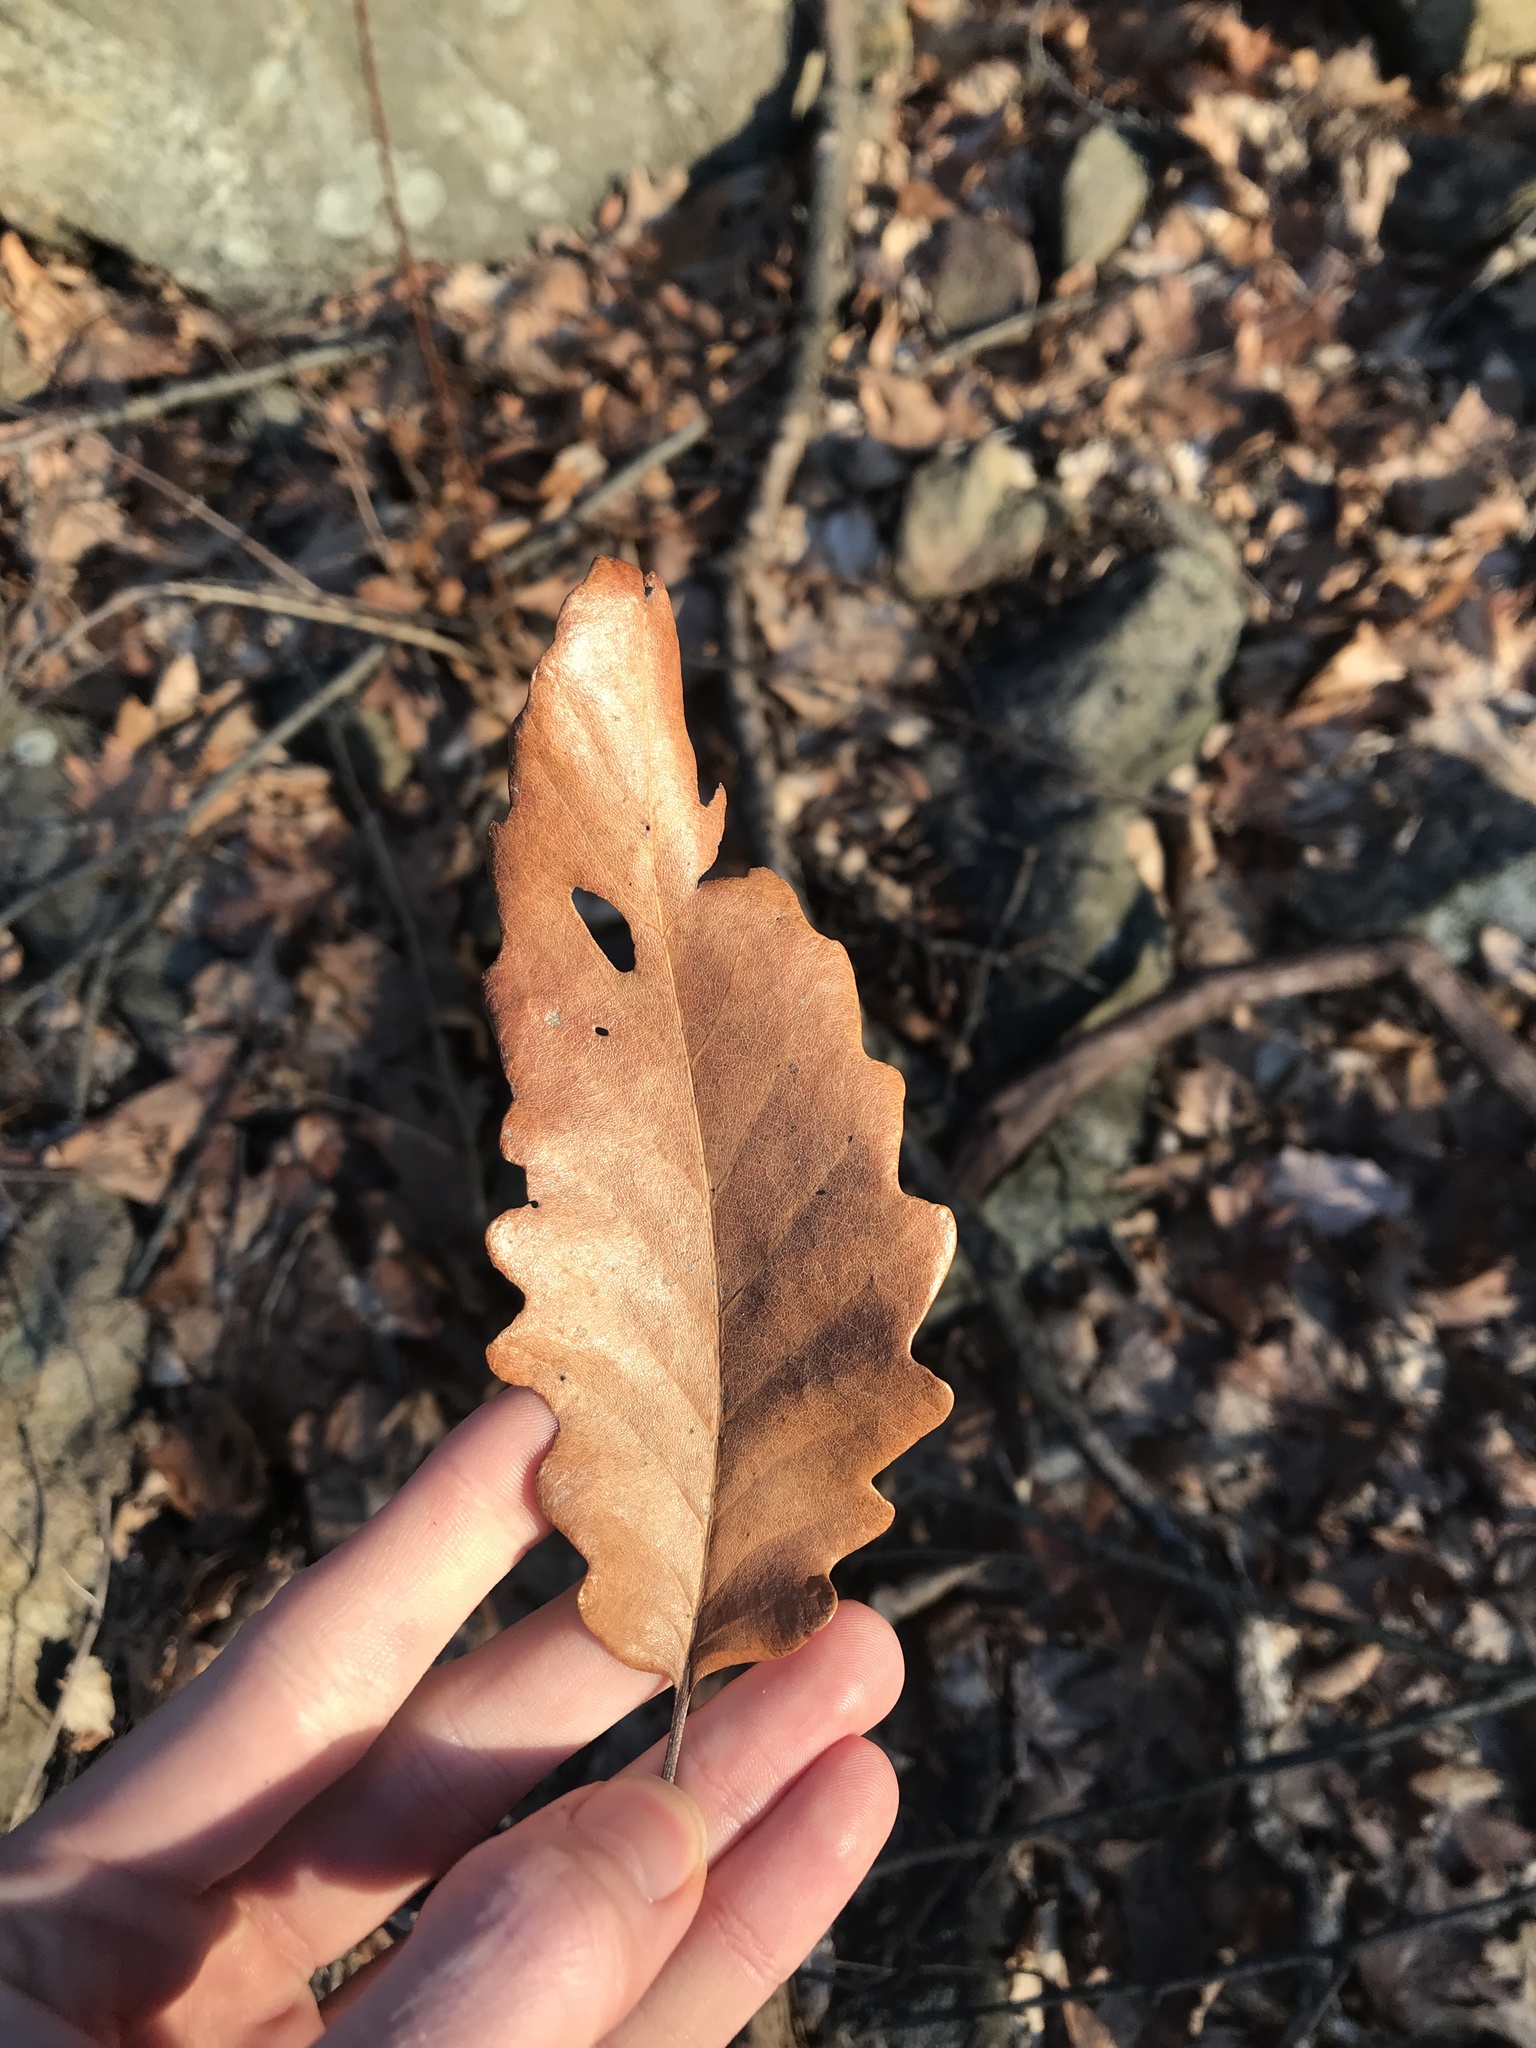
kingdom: Plantae
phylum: Tracheophyta
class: Magnoliopsida
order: Fagales
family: Fagaceae
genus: Quercus
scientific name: Quercus montana
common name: Chestnut oak
